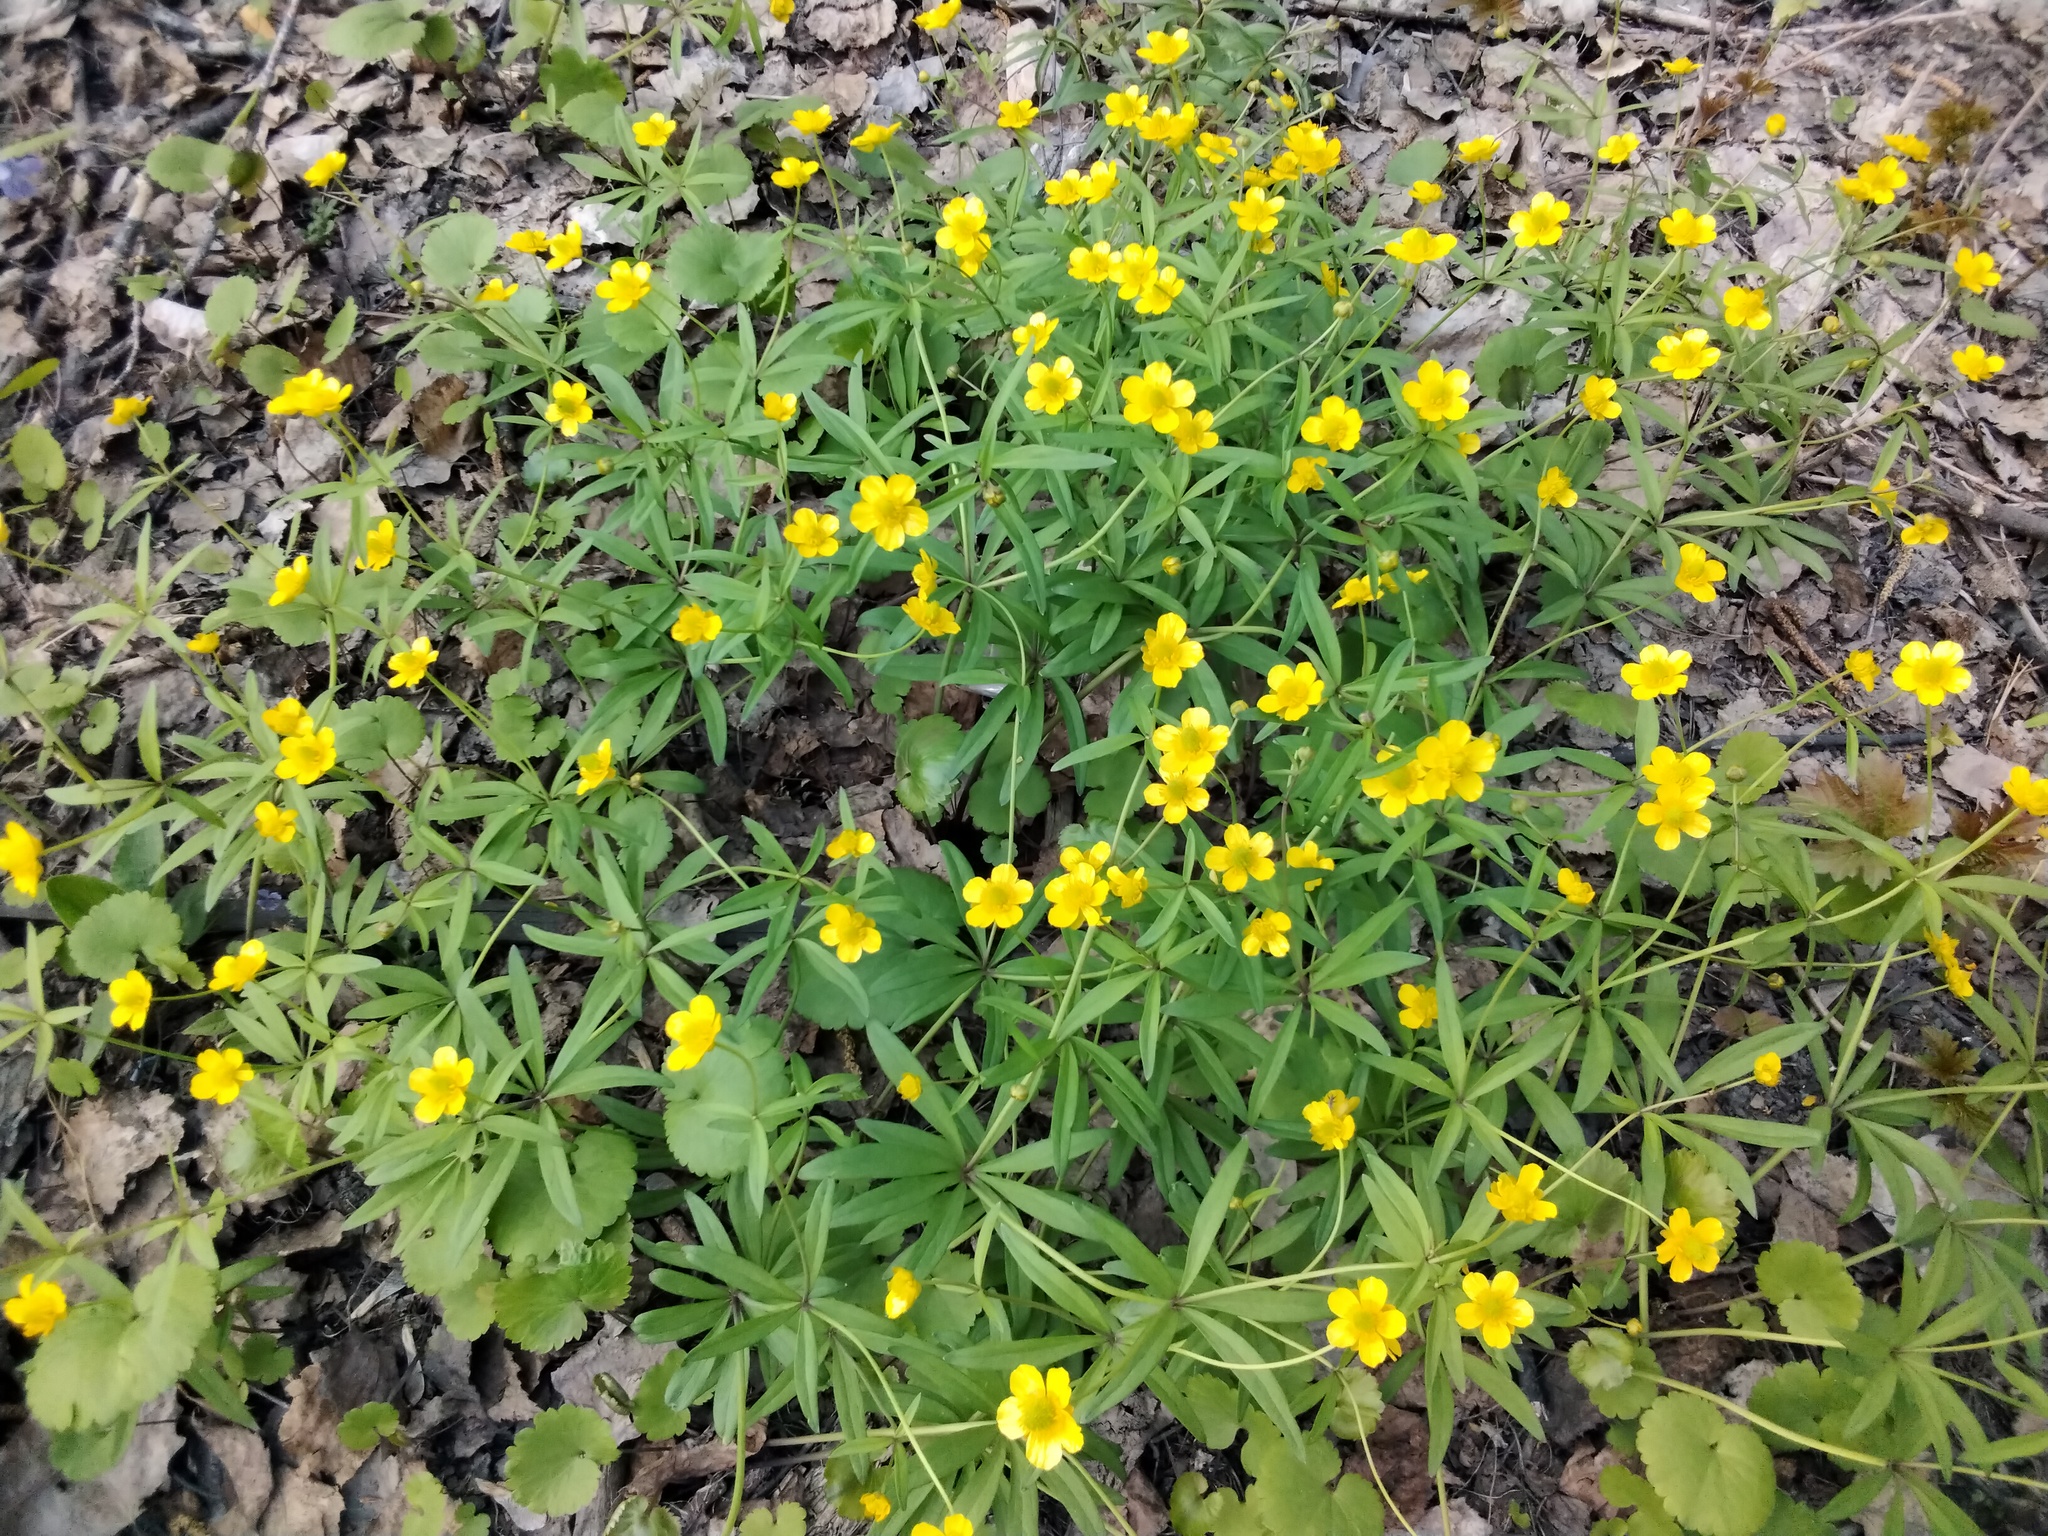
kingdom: Plantae
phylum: Tracheophyta
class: Magnoliopsida
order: Ranunculales
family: Ranunculaceae
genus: Ranunculus
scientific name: Ranunculus monophyllus
